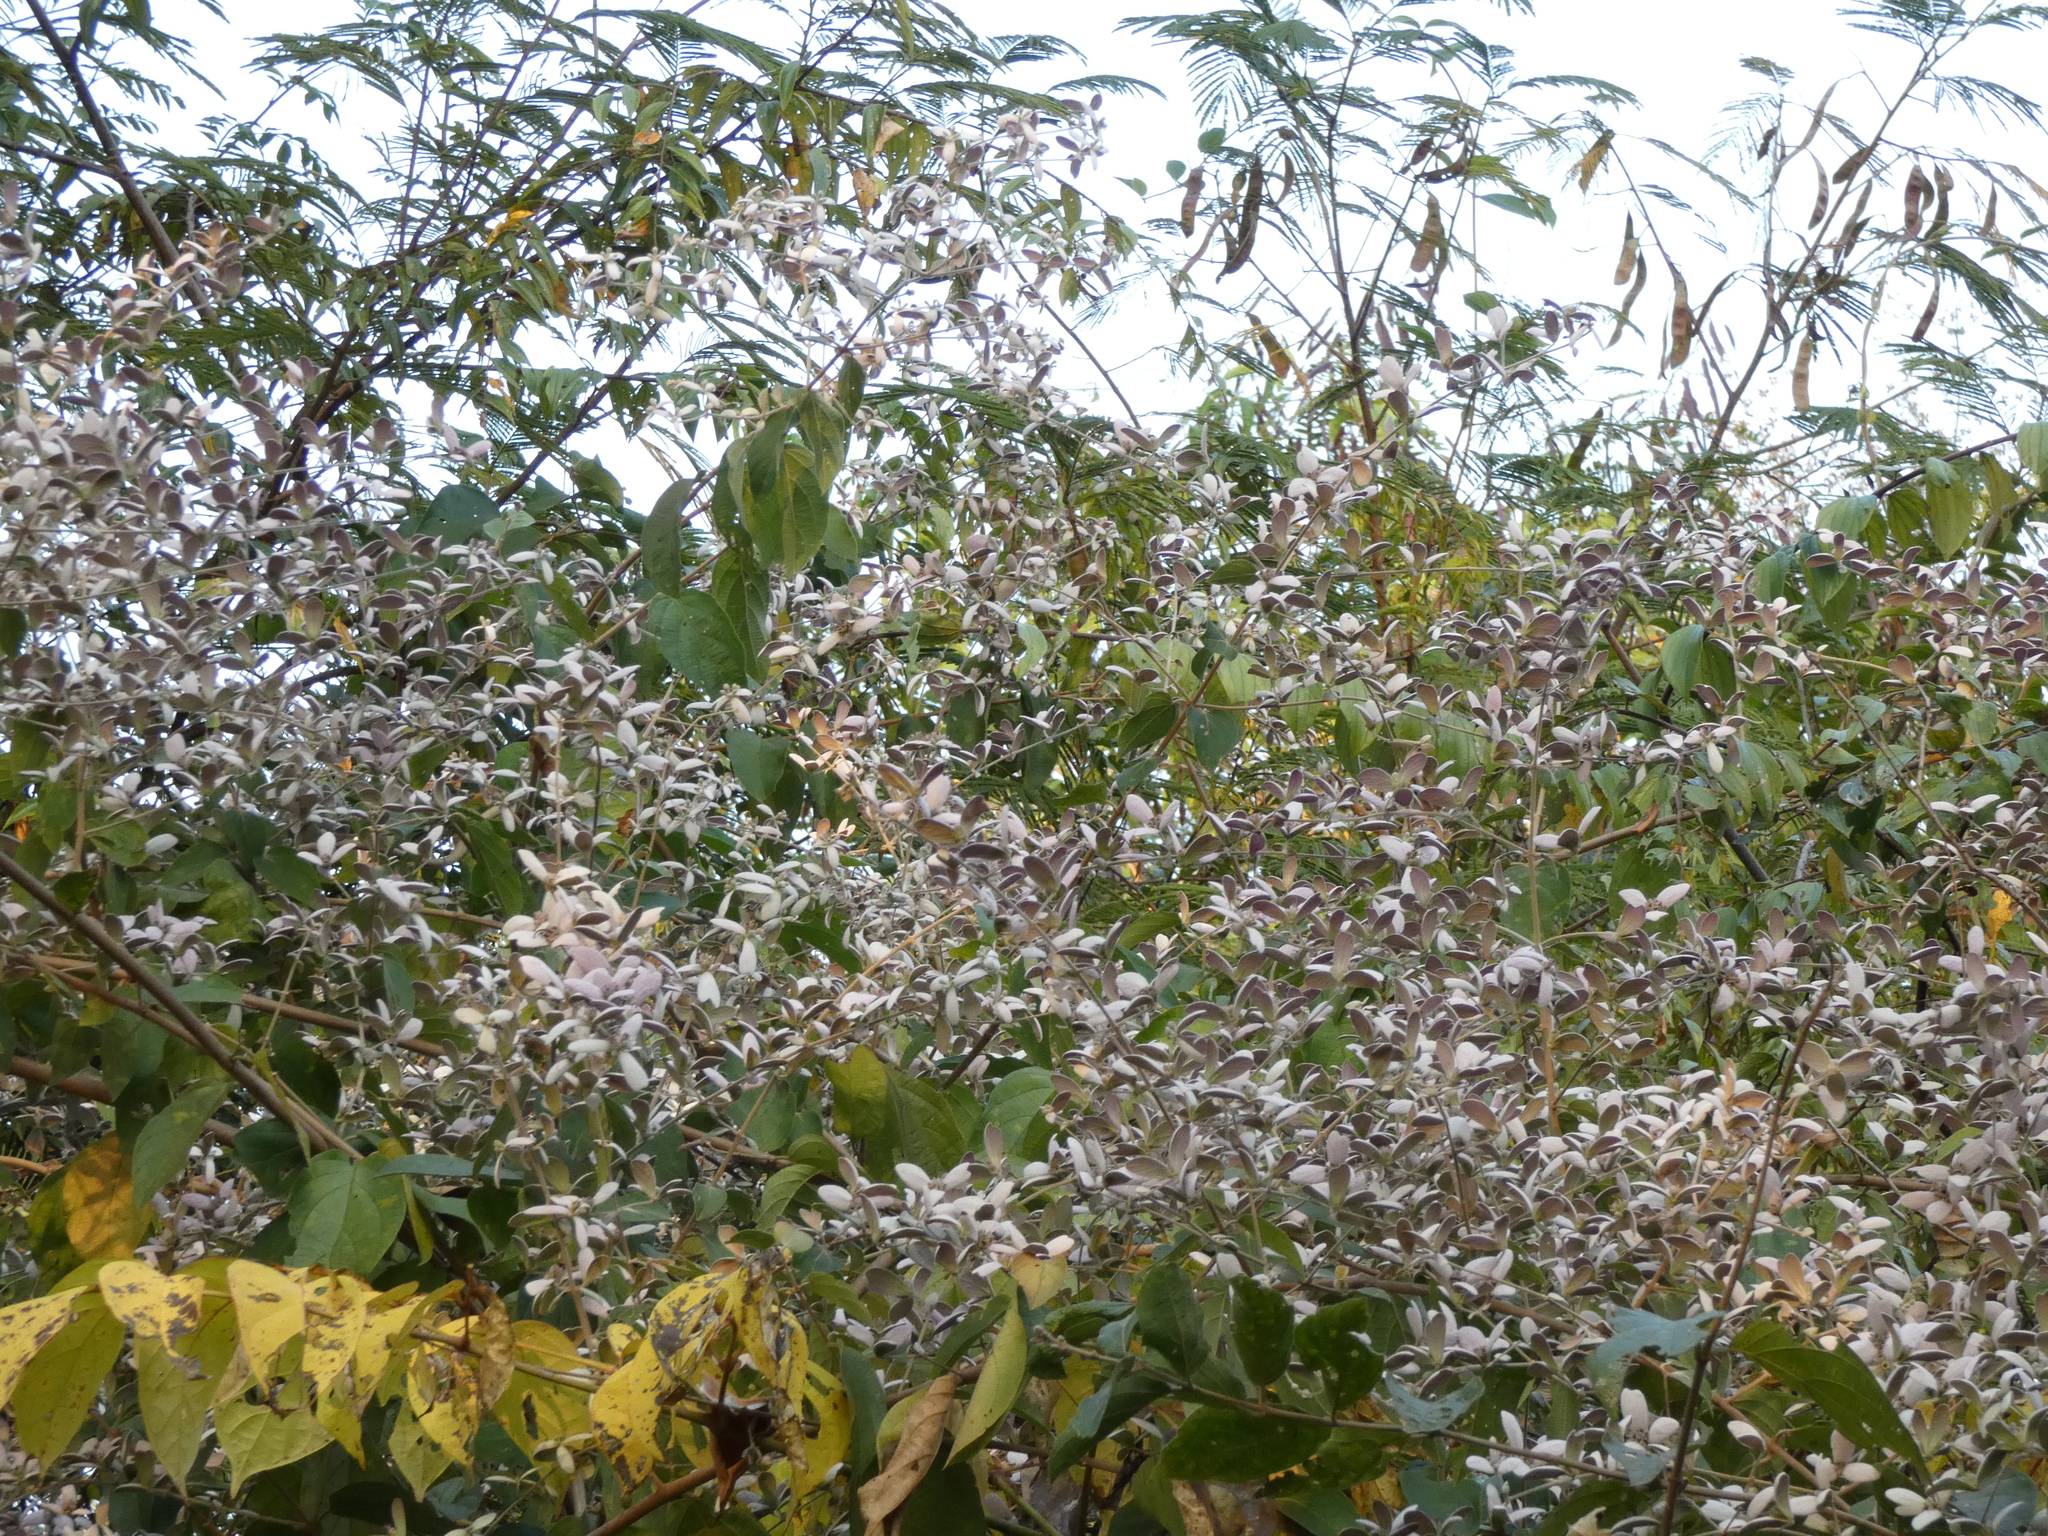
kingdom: Plantae
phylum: Tracheophyta
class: Magnoliopsida
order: Lamiales
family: Lamiaceae
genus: Congea
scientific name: Congea tomentosa
